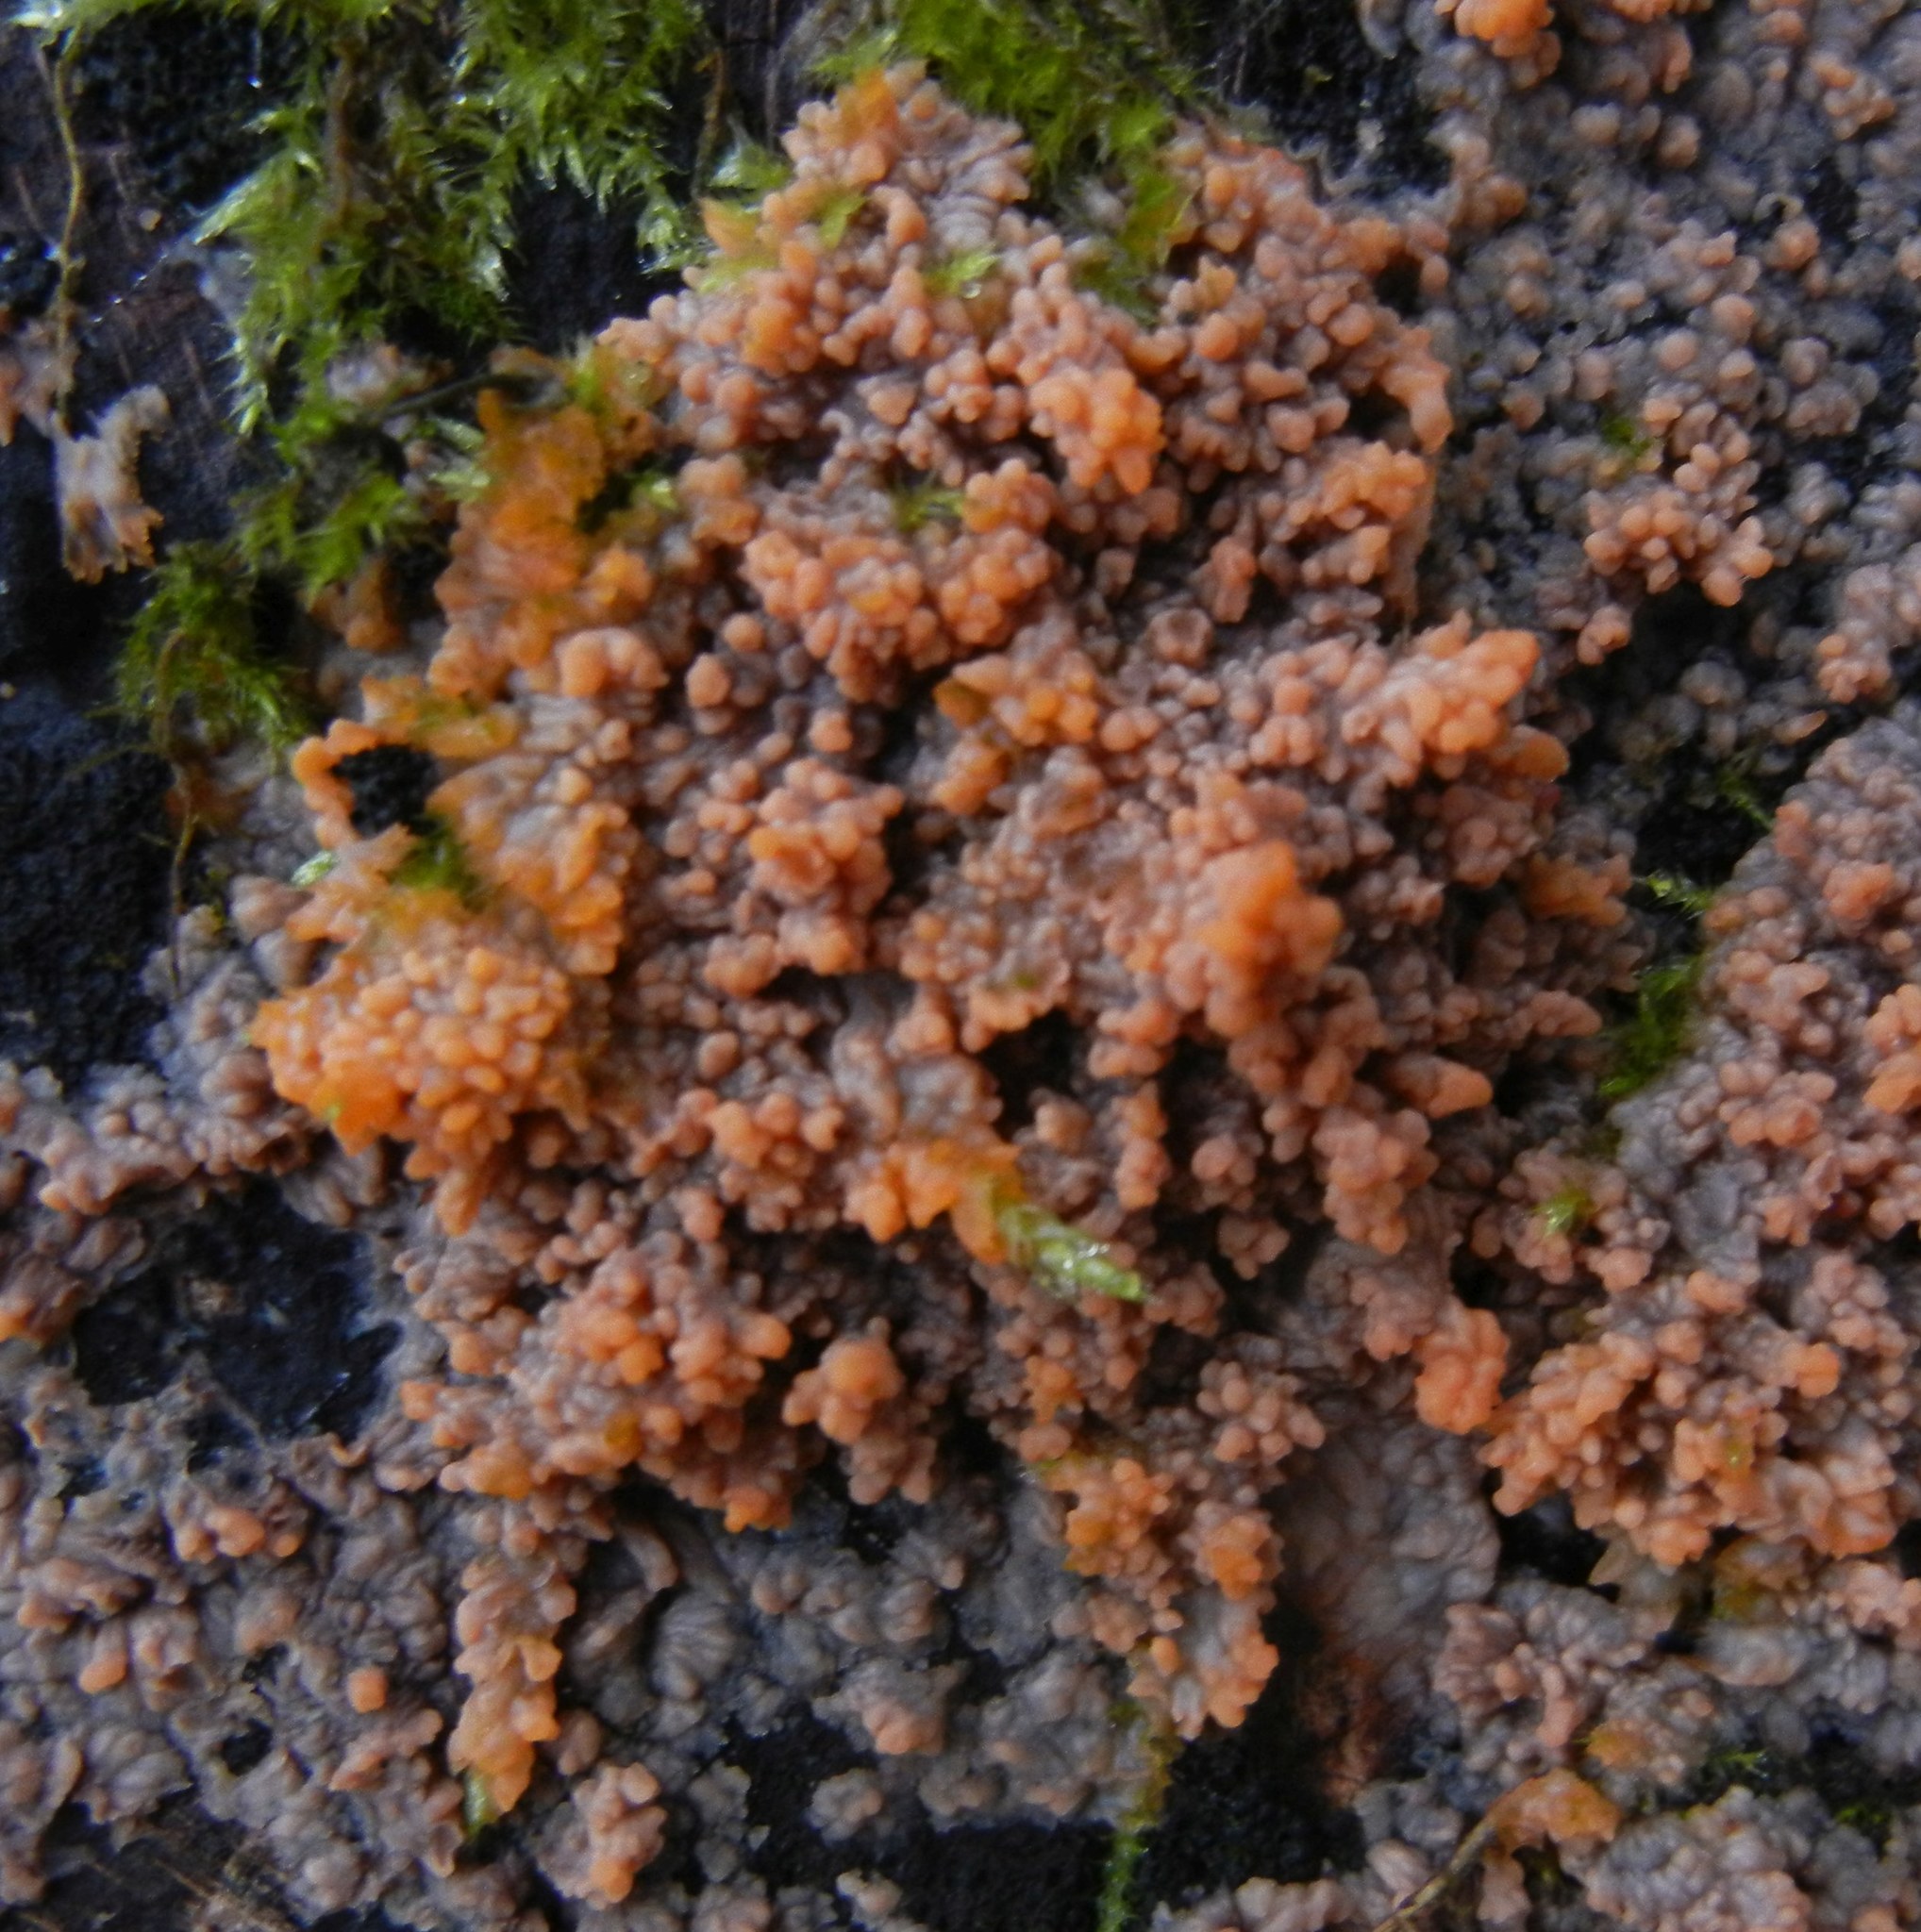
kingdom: Fungi
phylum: Basidiomycota
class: Agaricomycetes
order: Polyporales
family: Meruliaceae
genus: Phlebia
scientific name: Phlebia radiata
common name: Wrinkled crust
